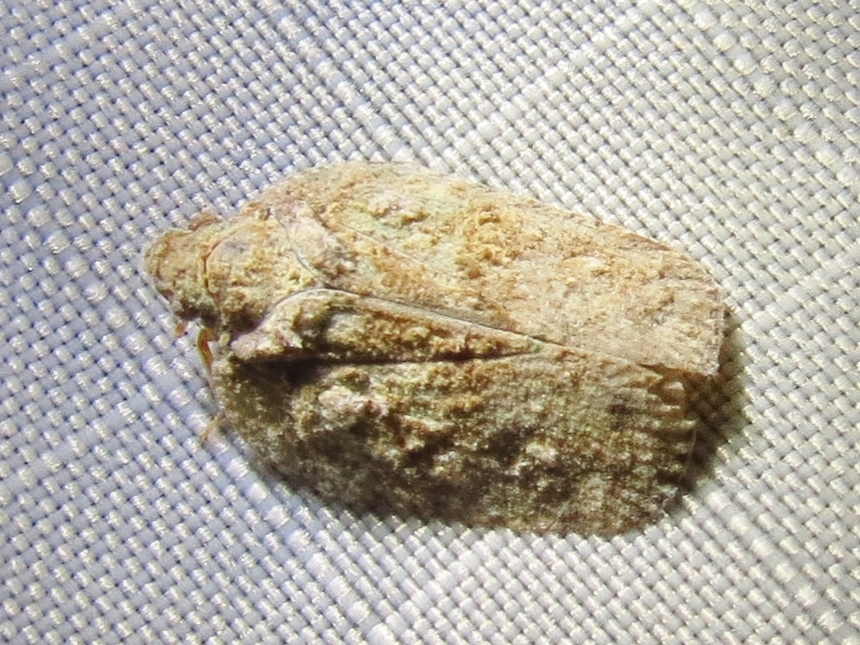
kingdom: Animalia
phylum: Arthropoda
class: Insecta
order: Hemiptera
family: Flatidae
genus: Flatoidinus
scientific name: Flatoidinus punctatus
